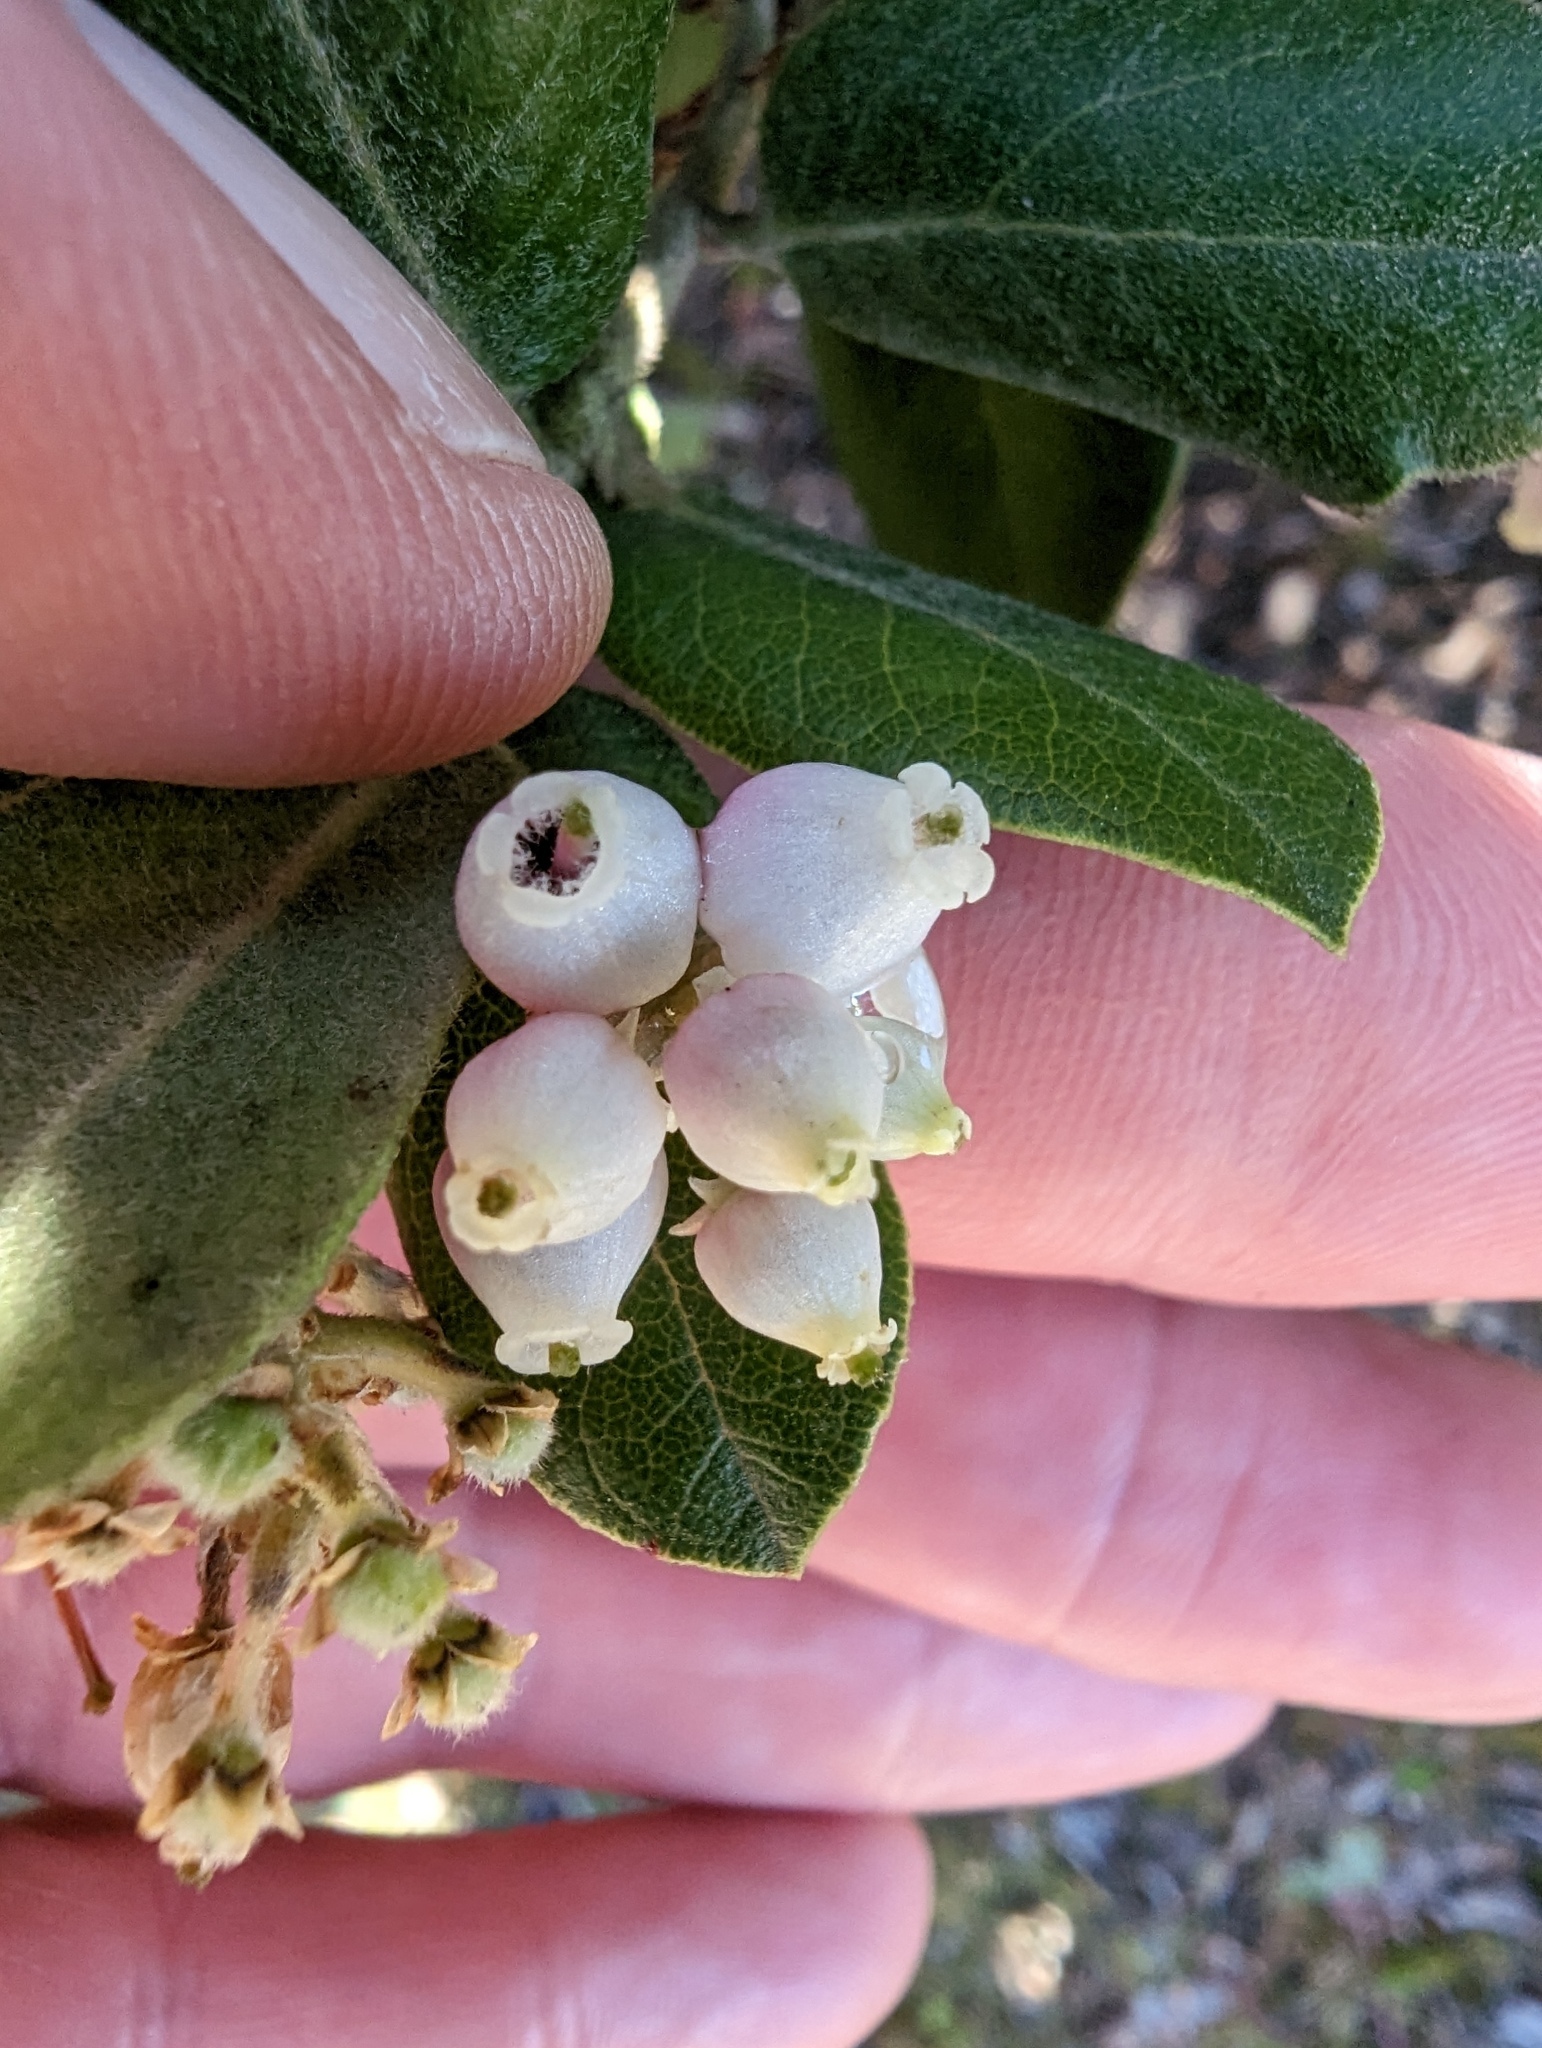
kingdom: Plantae
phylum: Tracheophyta
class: Magnoliopsida
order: Ericales
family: Ericaceae
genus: Arctostaphylos
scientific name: Arctostaphylos tomentosa
